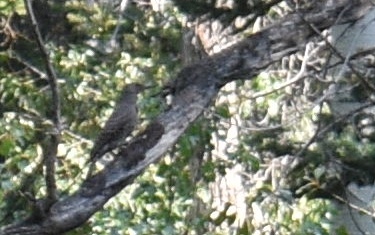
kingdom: Animalia
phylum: Chordata
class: Aves
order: Piciformes
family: Picidae
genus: Colaptes
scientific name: Colaptes auratus
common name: Northern flicker
